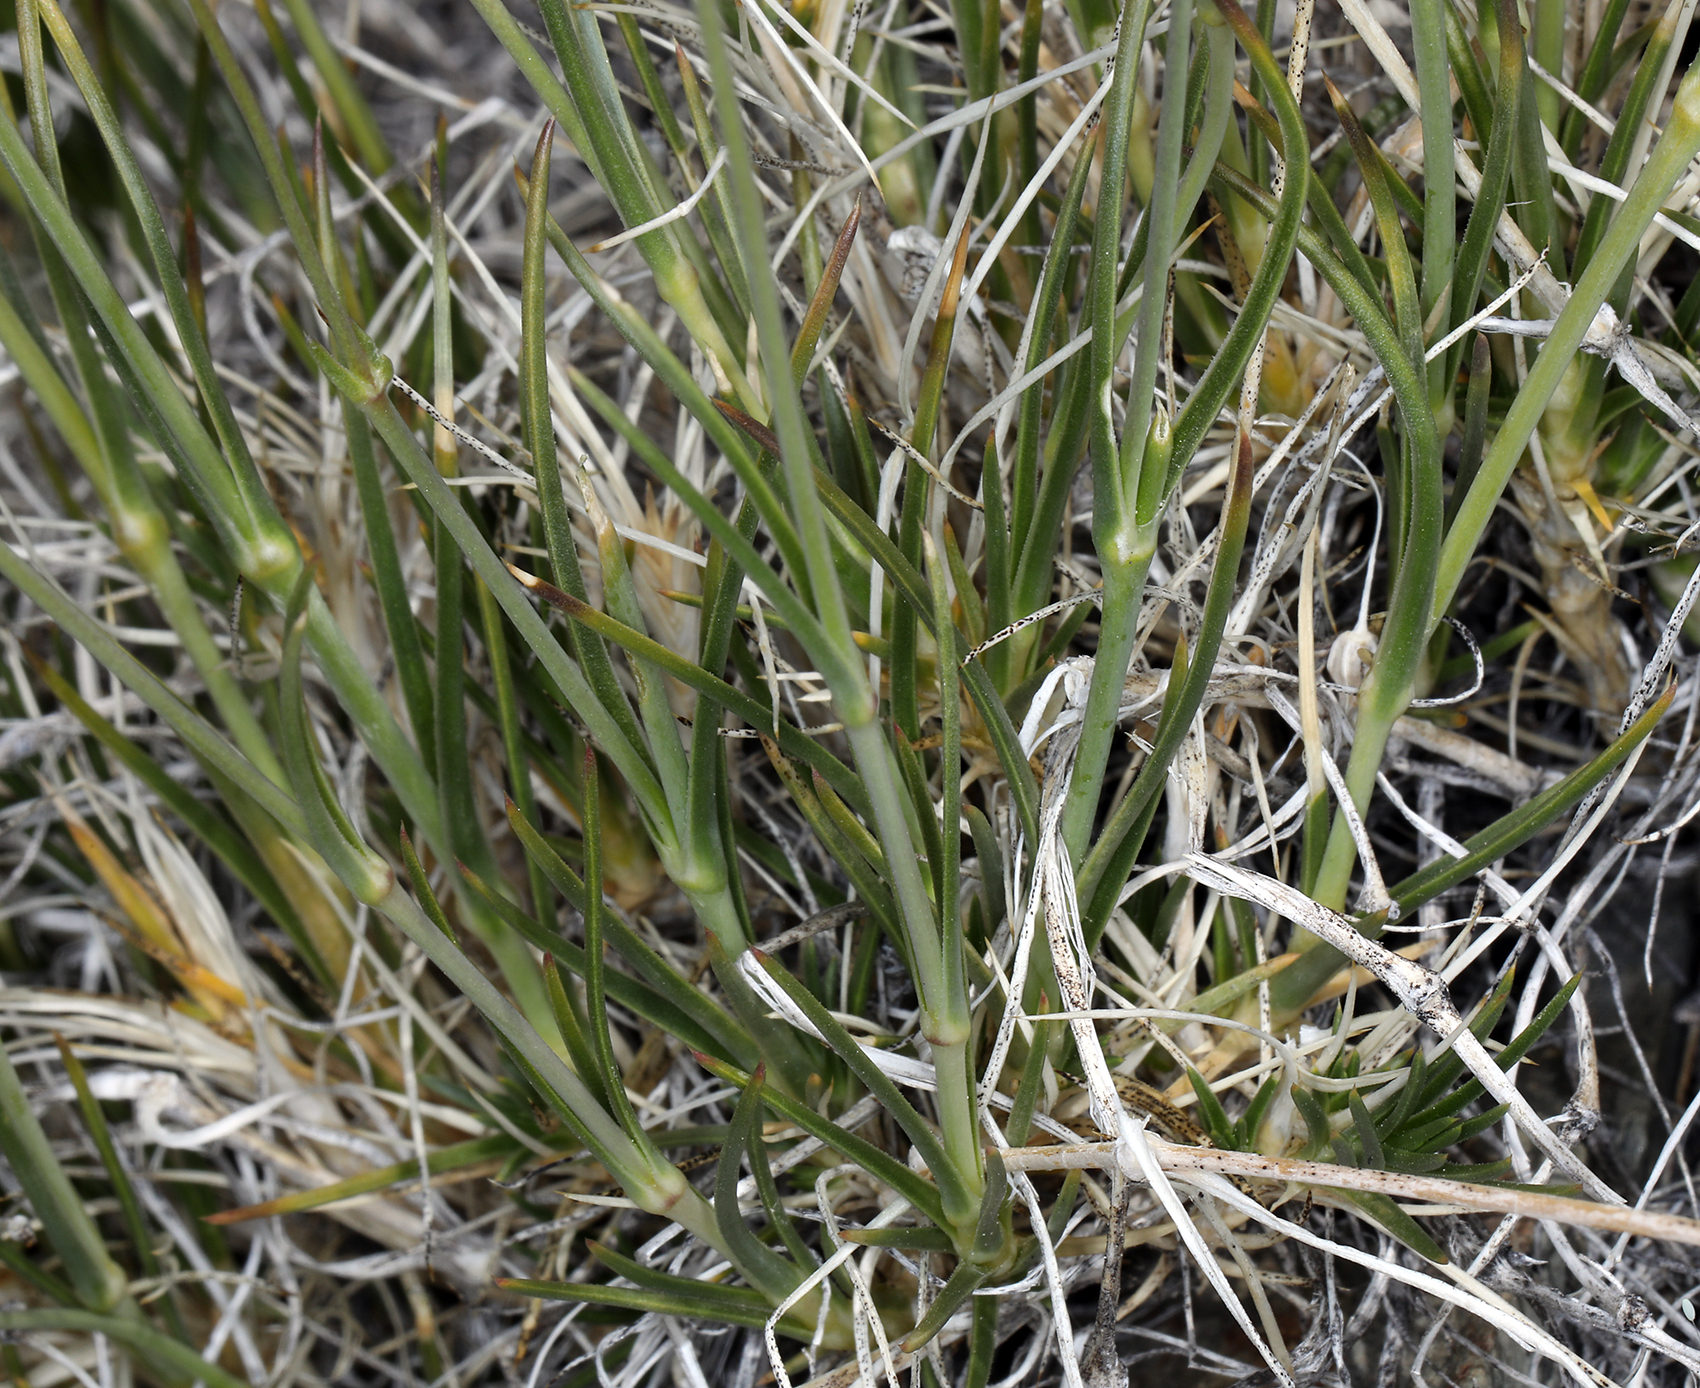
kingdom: Plantae
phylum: Tracheophyta
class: Magnoliopsida
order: Caryophyllales
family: Caryophyllaceae
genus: Eremogone
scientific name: Eremogone macradenia
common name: Mohave sandwort
